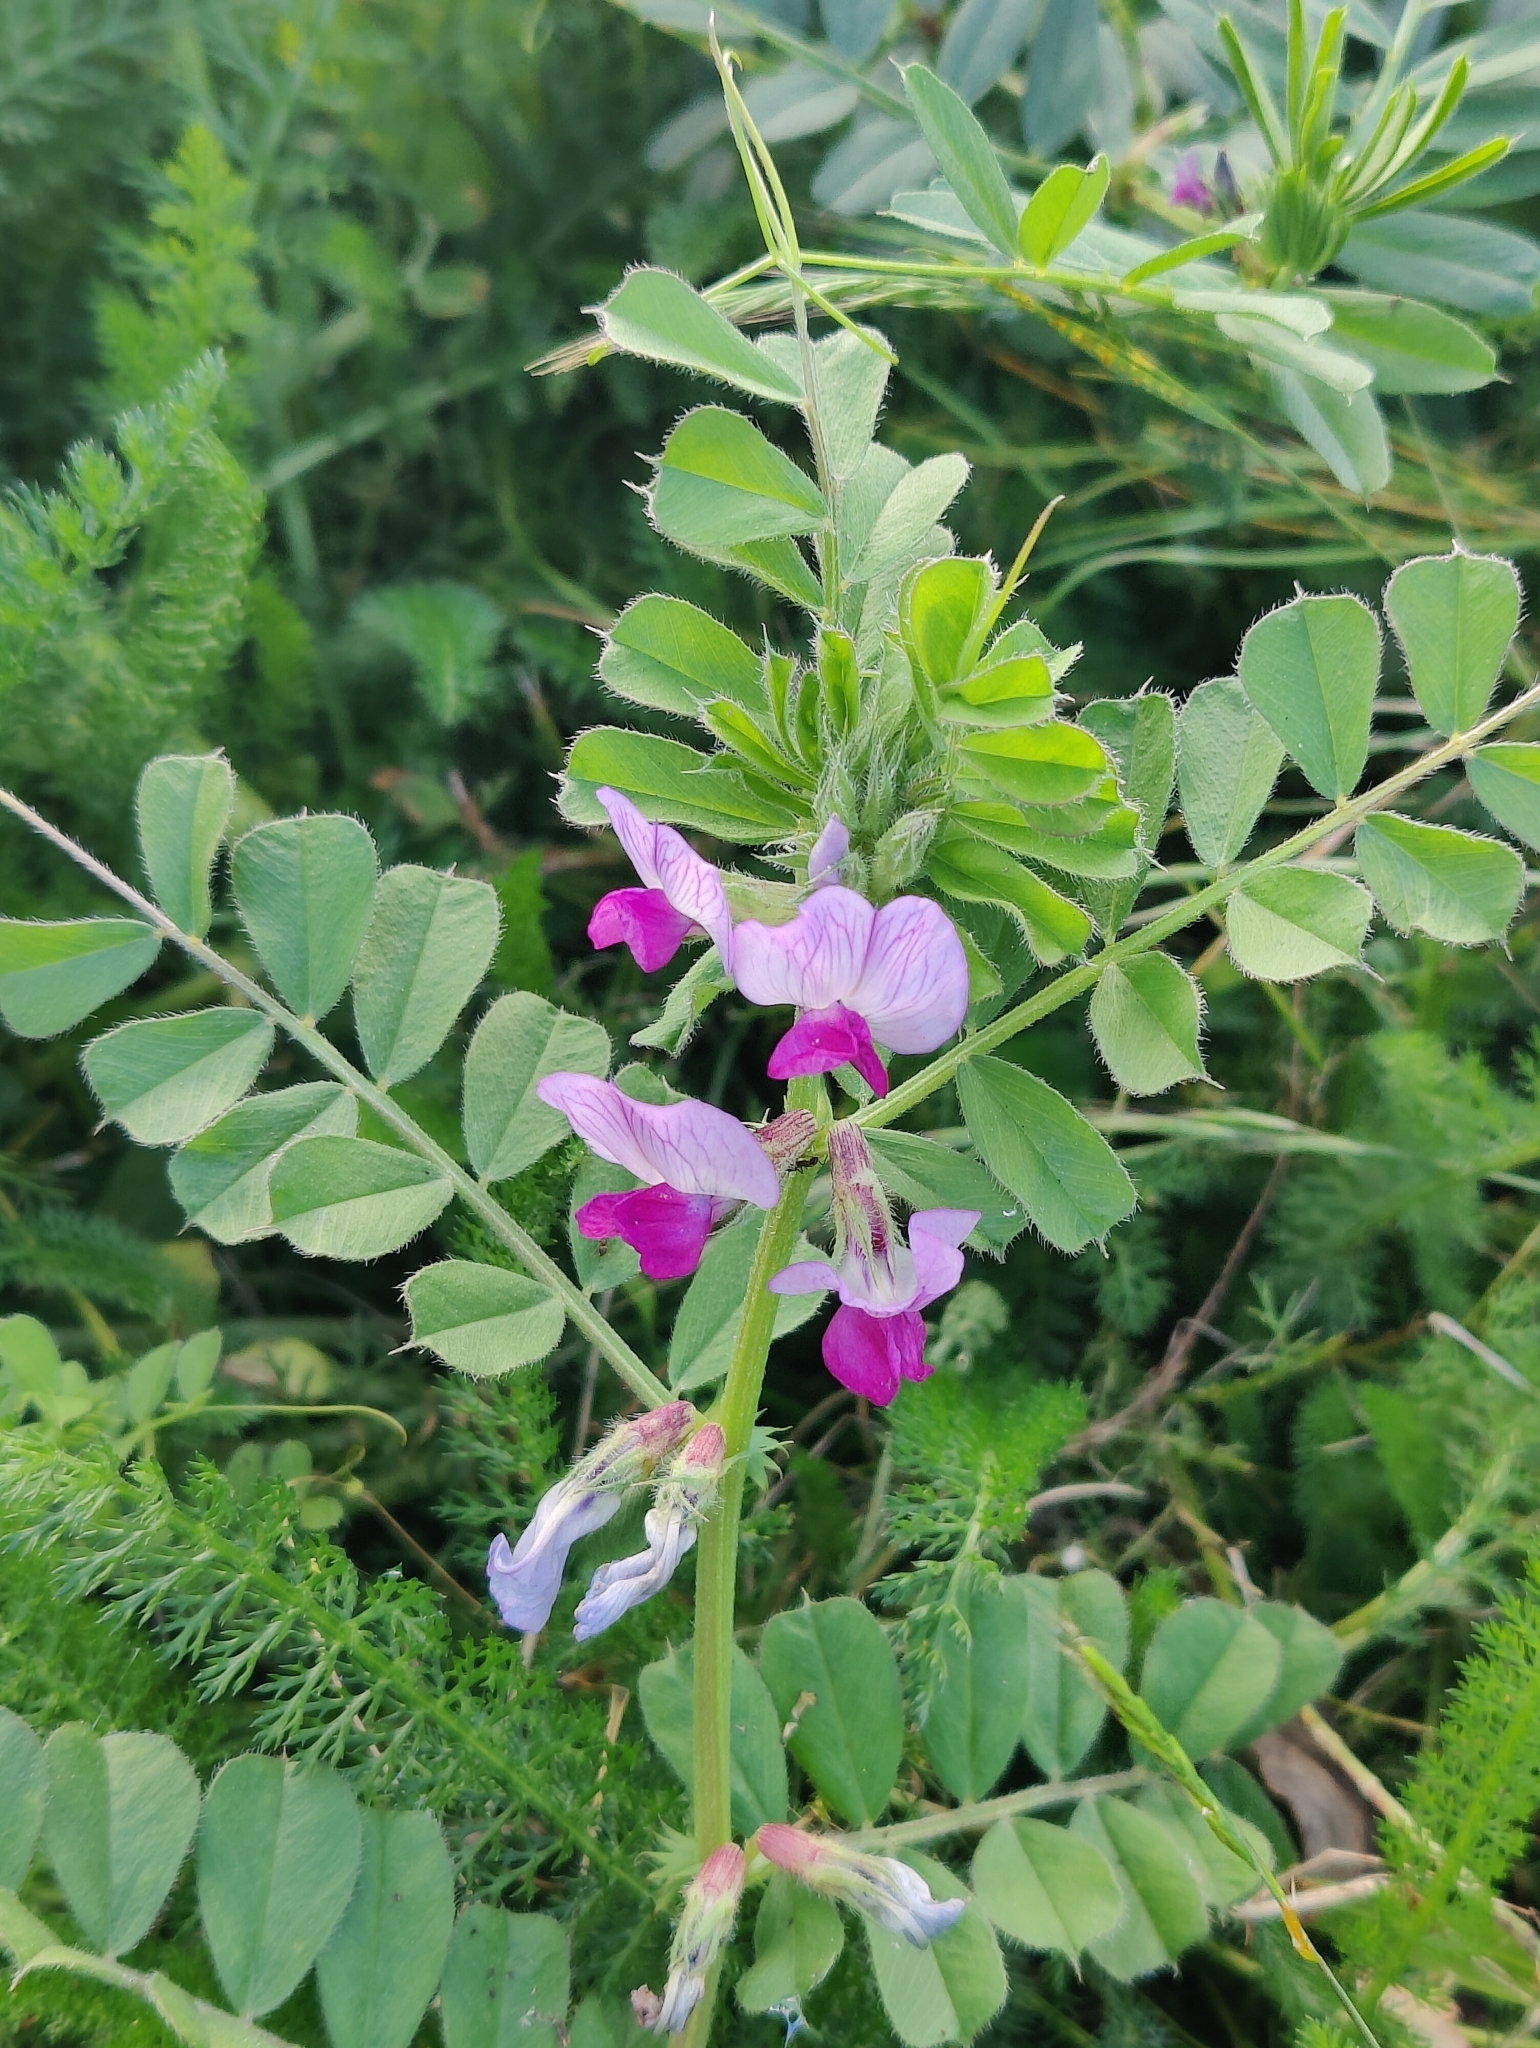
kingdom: Plantae
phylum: Tracheophyta
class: Magnoliopsida
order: Fabales
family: Fabaceae
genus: Vicia
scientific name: Vicia sativa
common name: Garden vetch
